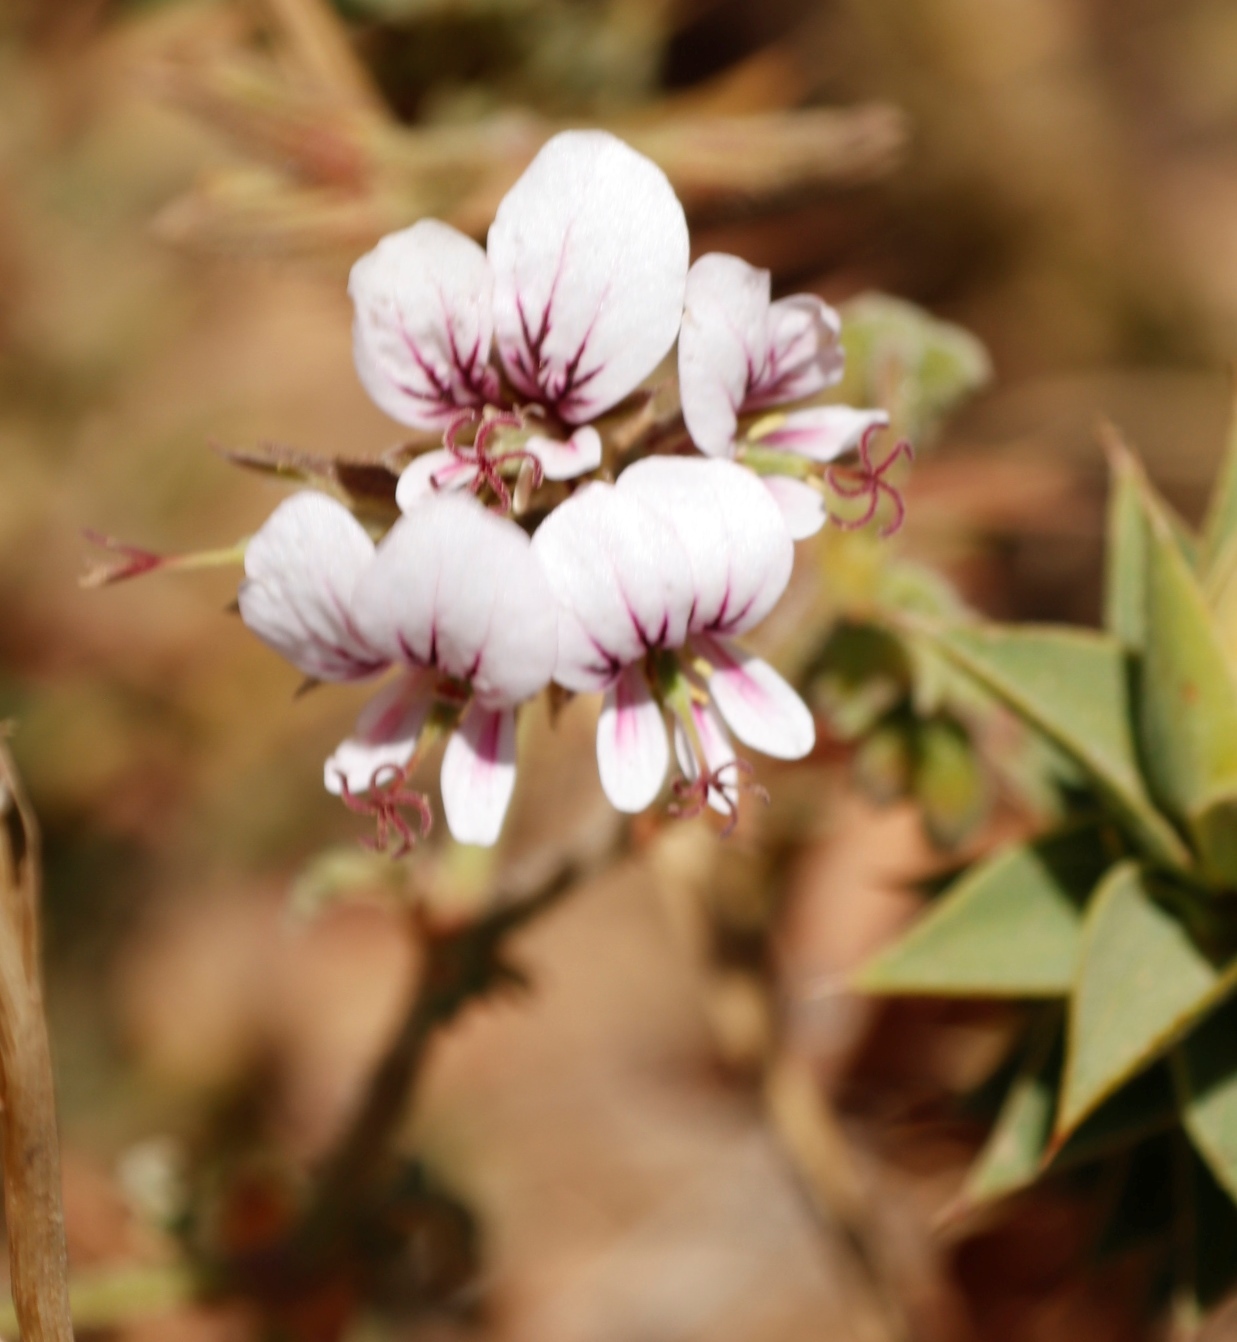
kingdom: Plantae
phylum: Tracheophyta
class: Magnoliopsida
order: Geraniales
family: Geraniaceae
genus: Pelargonium
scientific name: Pelargonium candicans
